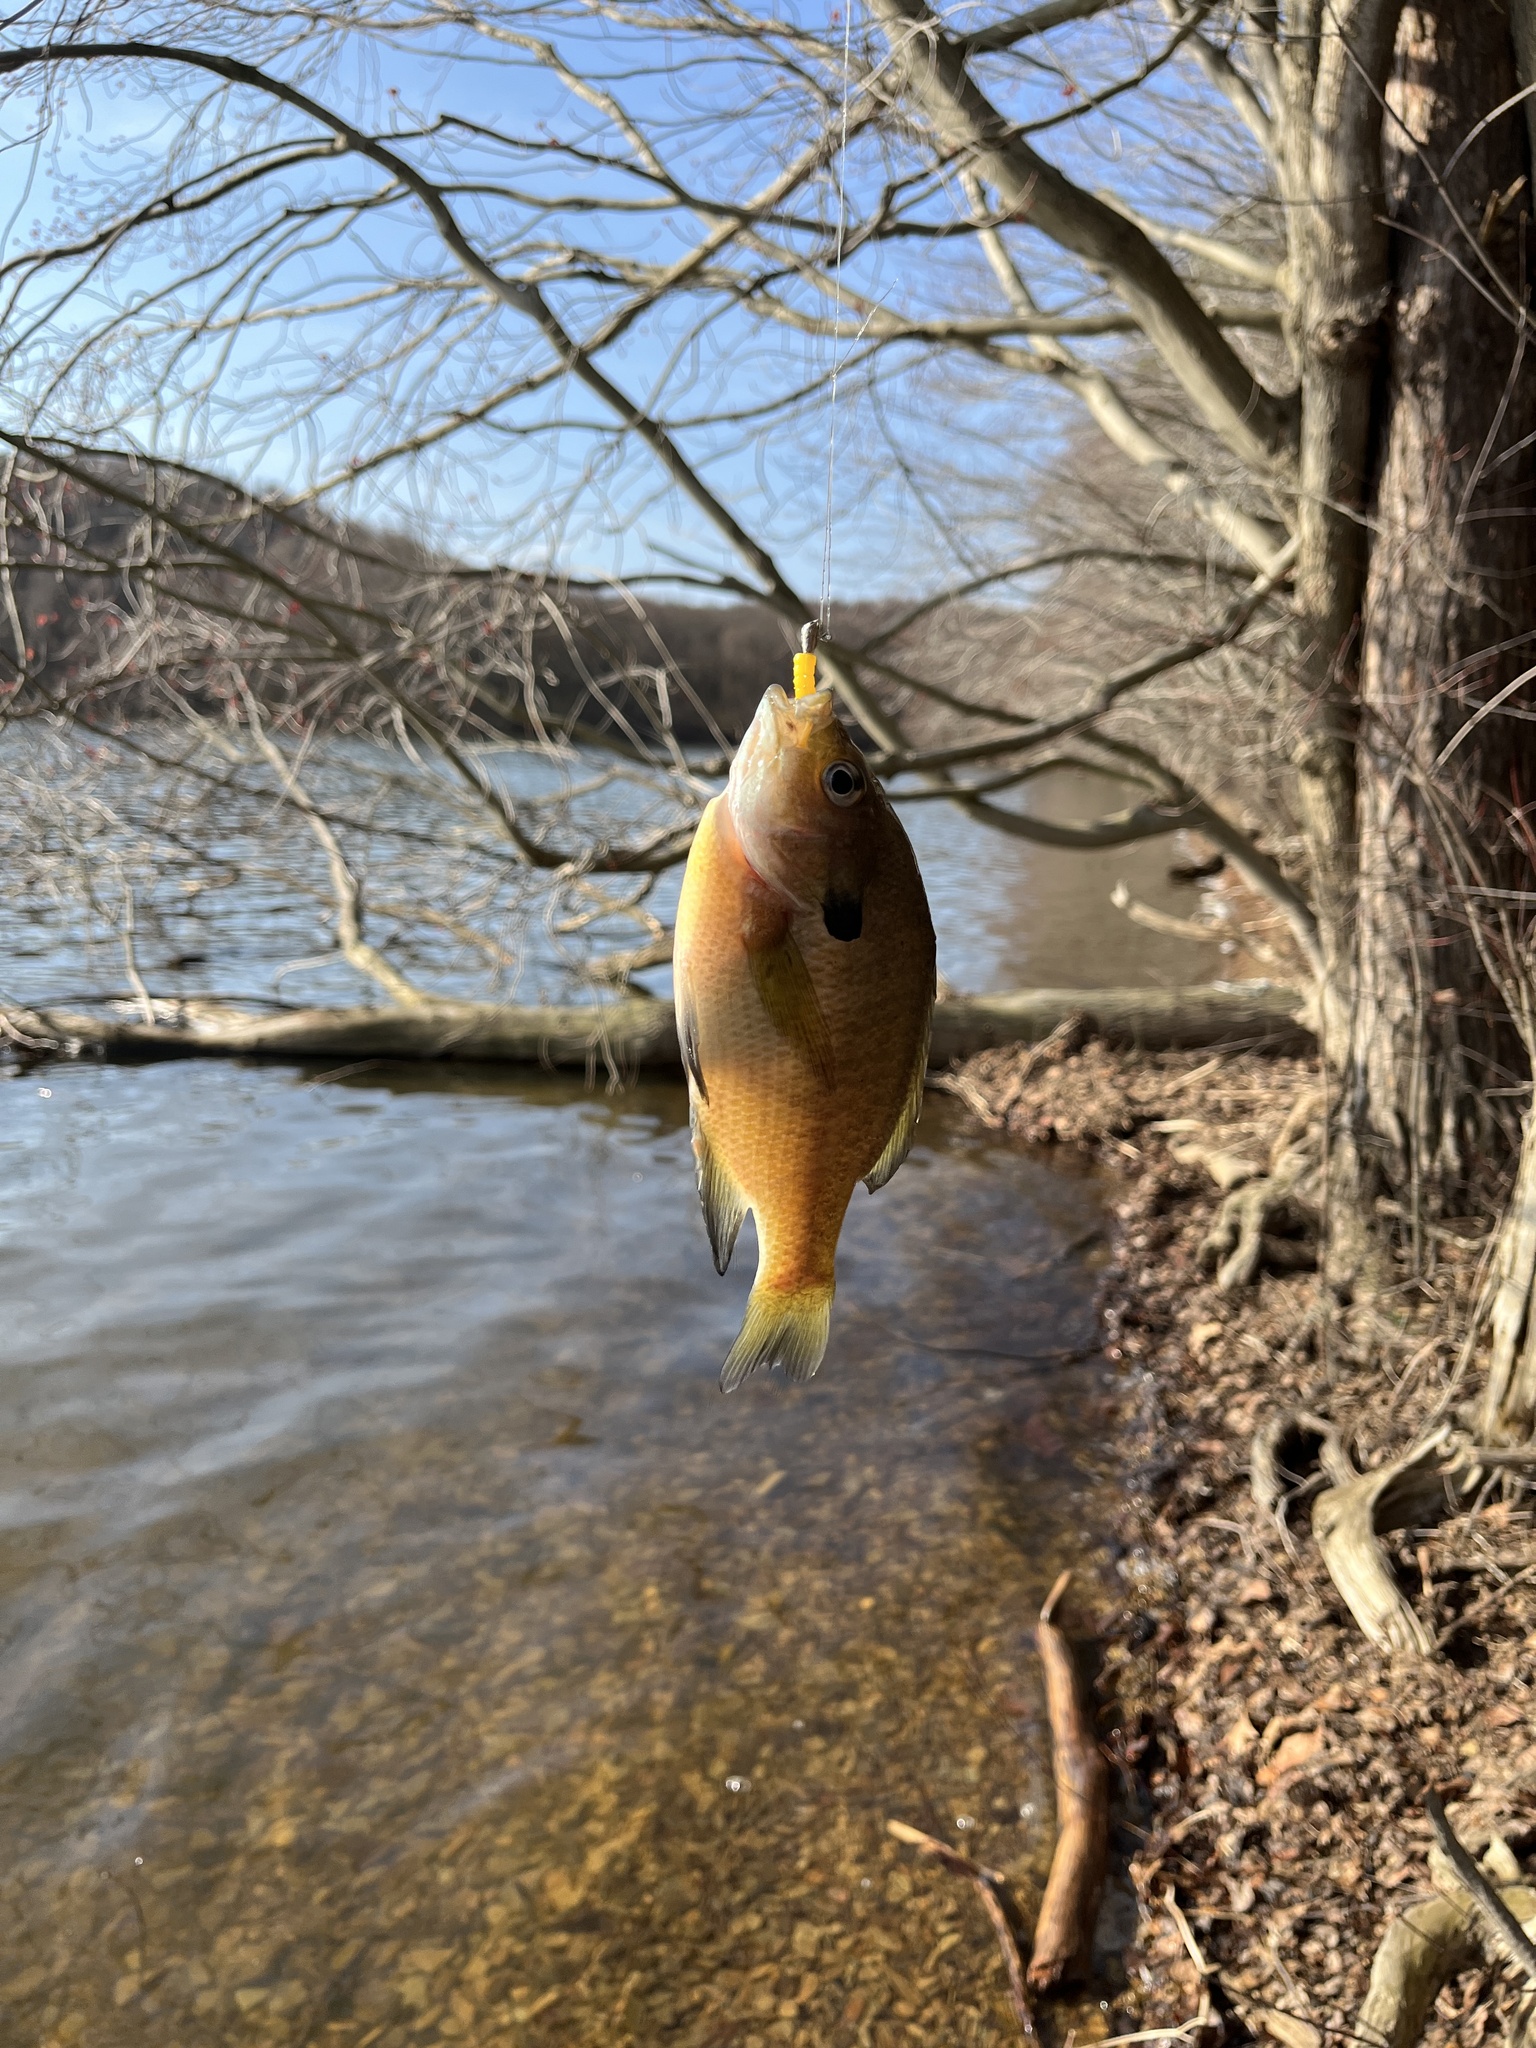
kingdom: Animalia
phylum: Chordata
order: Perciformes
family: Centrarchidae
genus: Lepomis
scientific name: Lepomis macrochirus
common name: Bluegill
